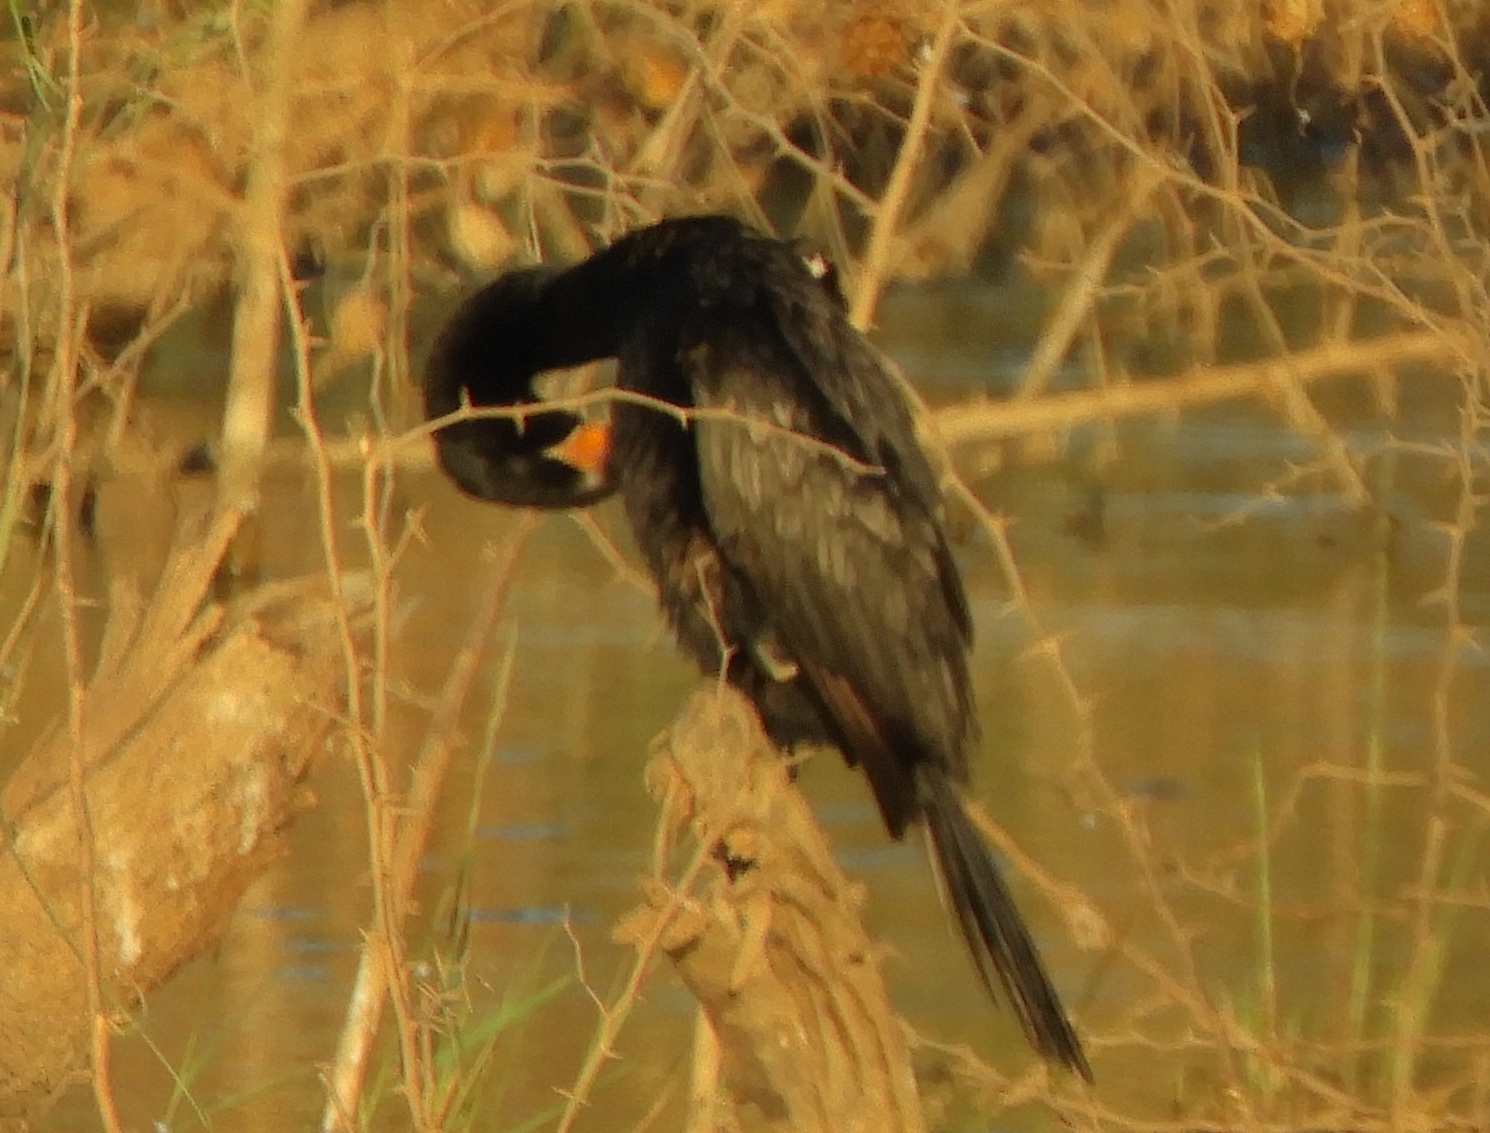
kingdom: Animalia
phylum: Chordata
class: Aves
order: Suliformes
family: Phalacrocoracidae
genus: Phalacrocorax
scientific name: Phalacrocorax brasilianus
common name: Neotropic cormorant
